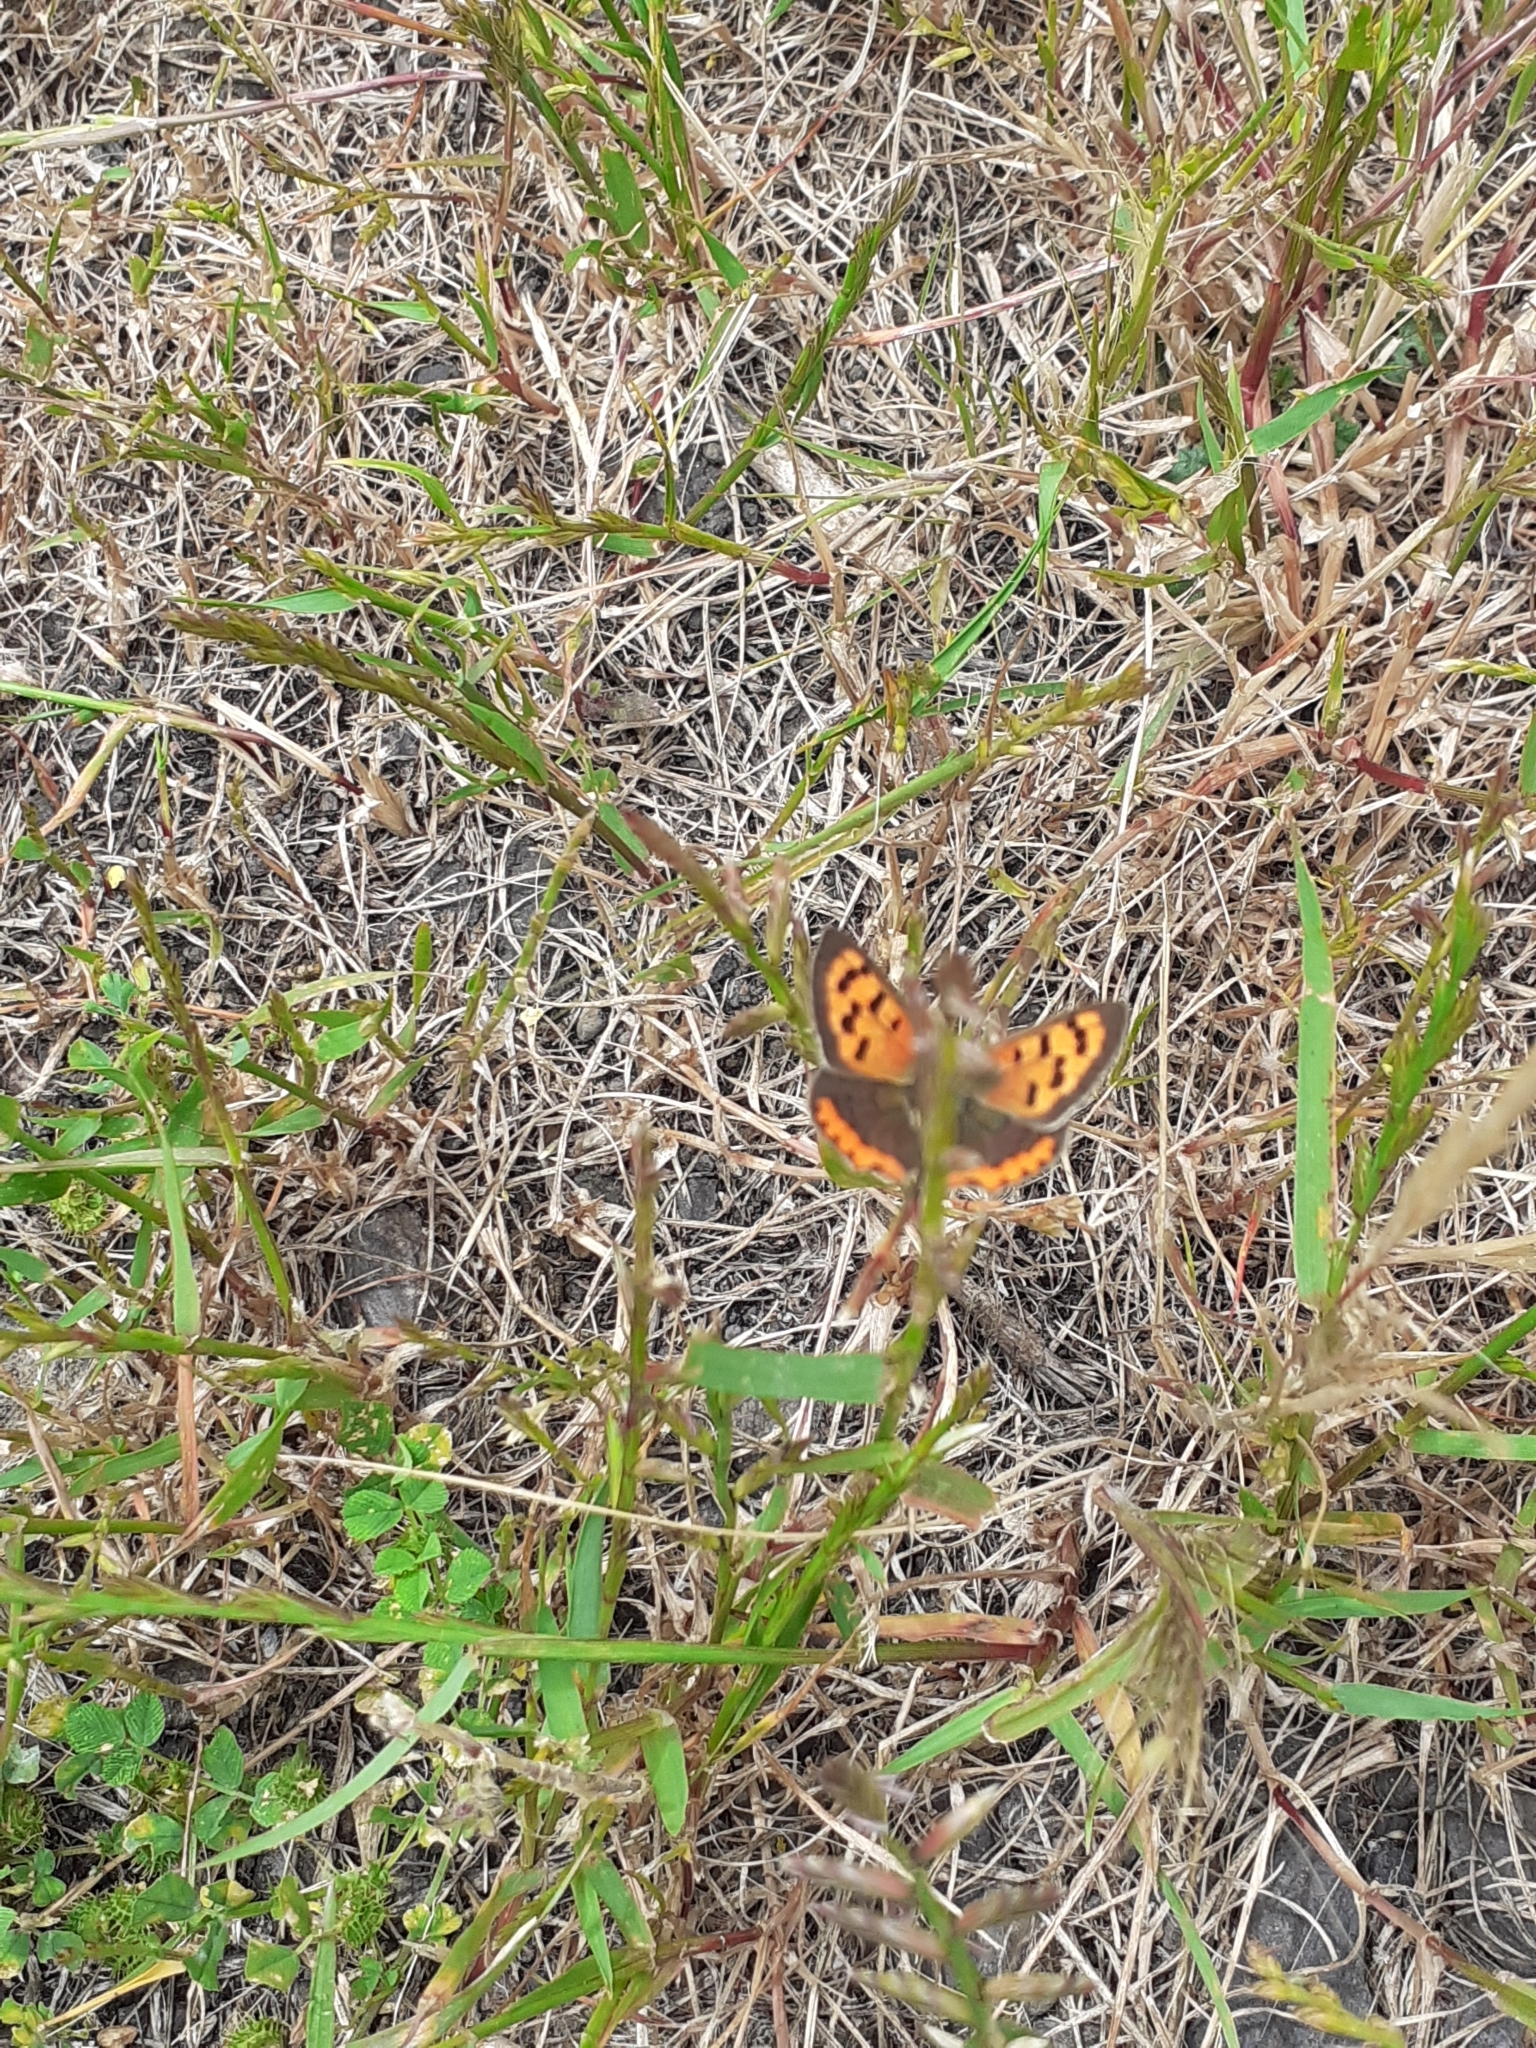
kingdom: Animalia
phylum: Arthropoda
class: Insecta
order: Lepidoptera
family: Lycaenidae
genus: Lycaena
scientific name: Lycaena phlaeas
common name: Small copper
